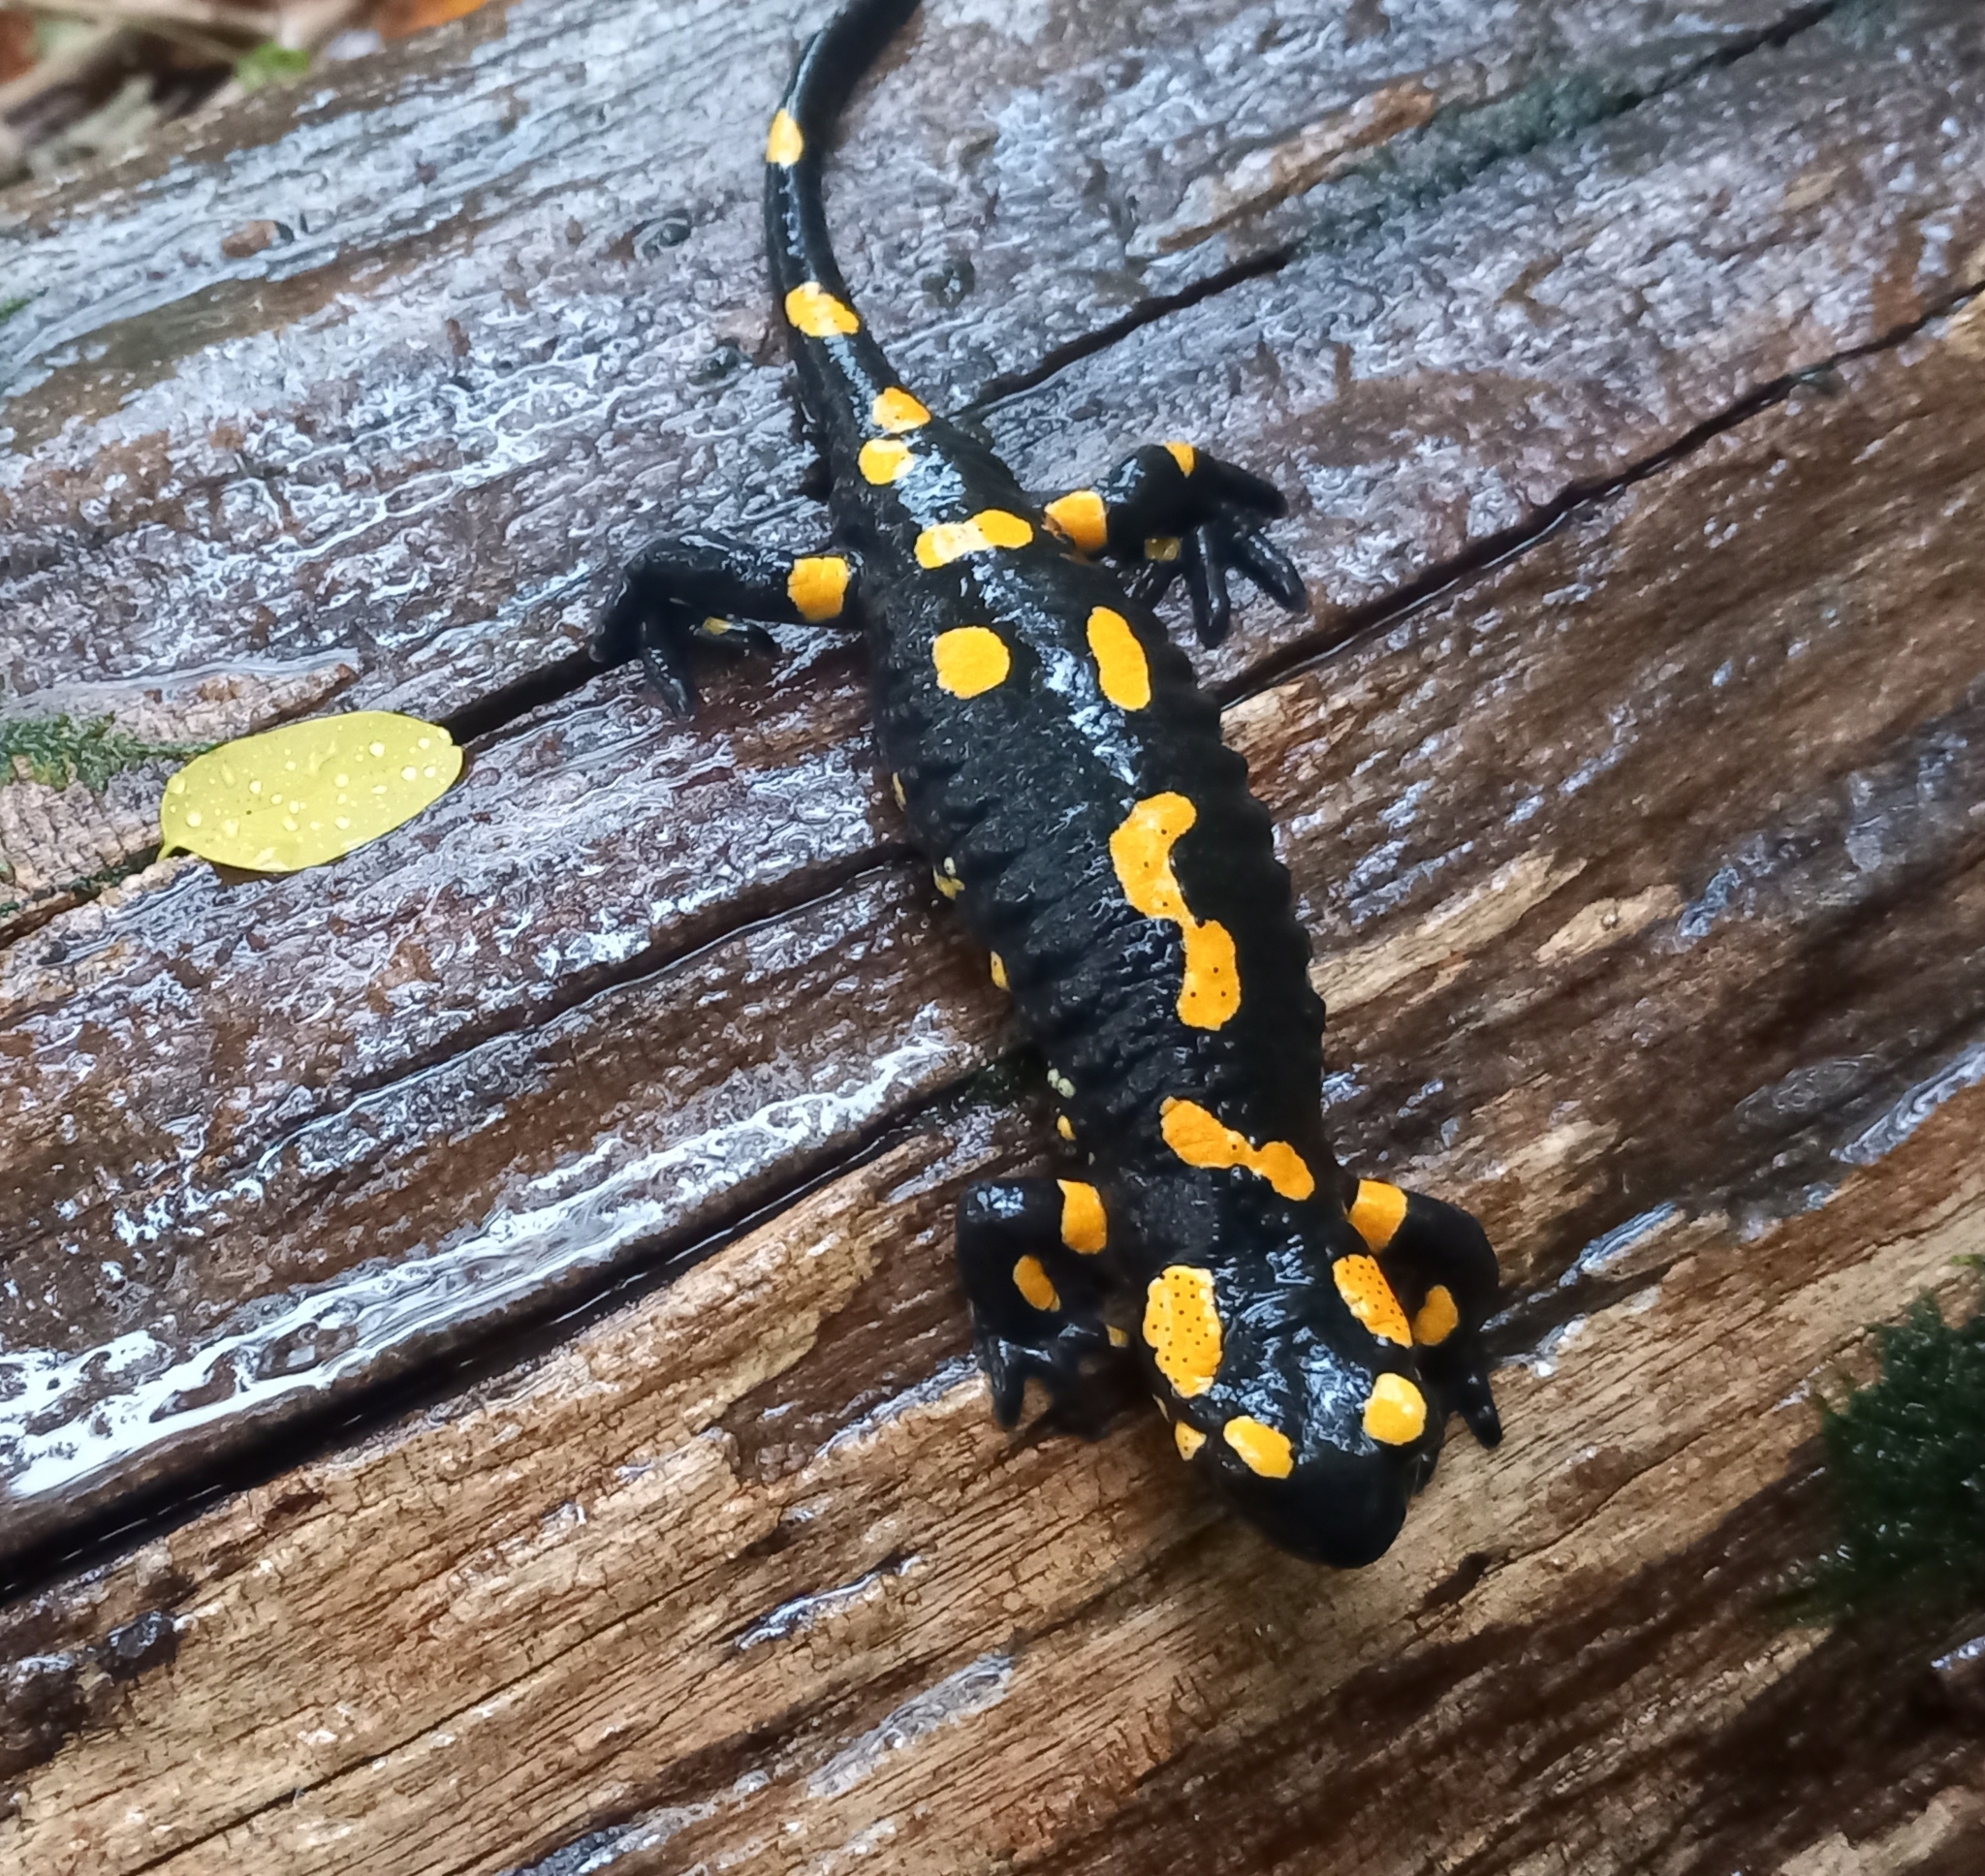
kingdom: Animalia
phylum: Chordata
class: Amphibia
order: Caudata
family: Salamandridae
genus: Salamandra
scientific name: Salamandra salamandra
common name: Fire salamander
